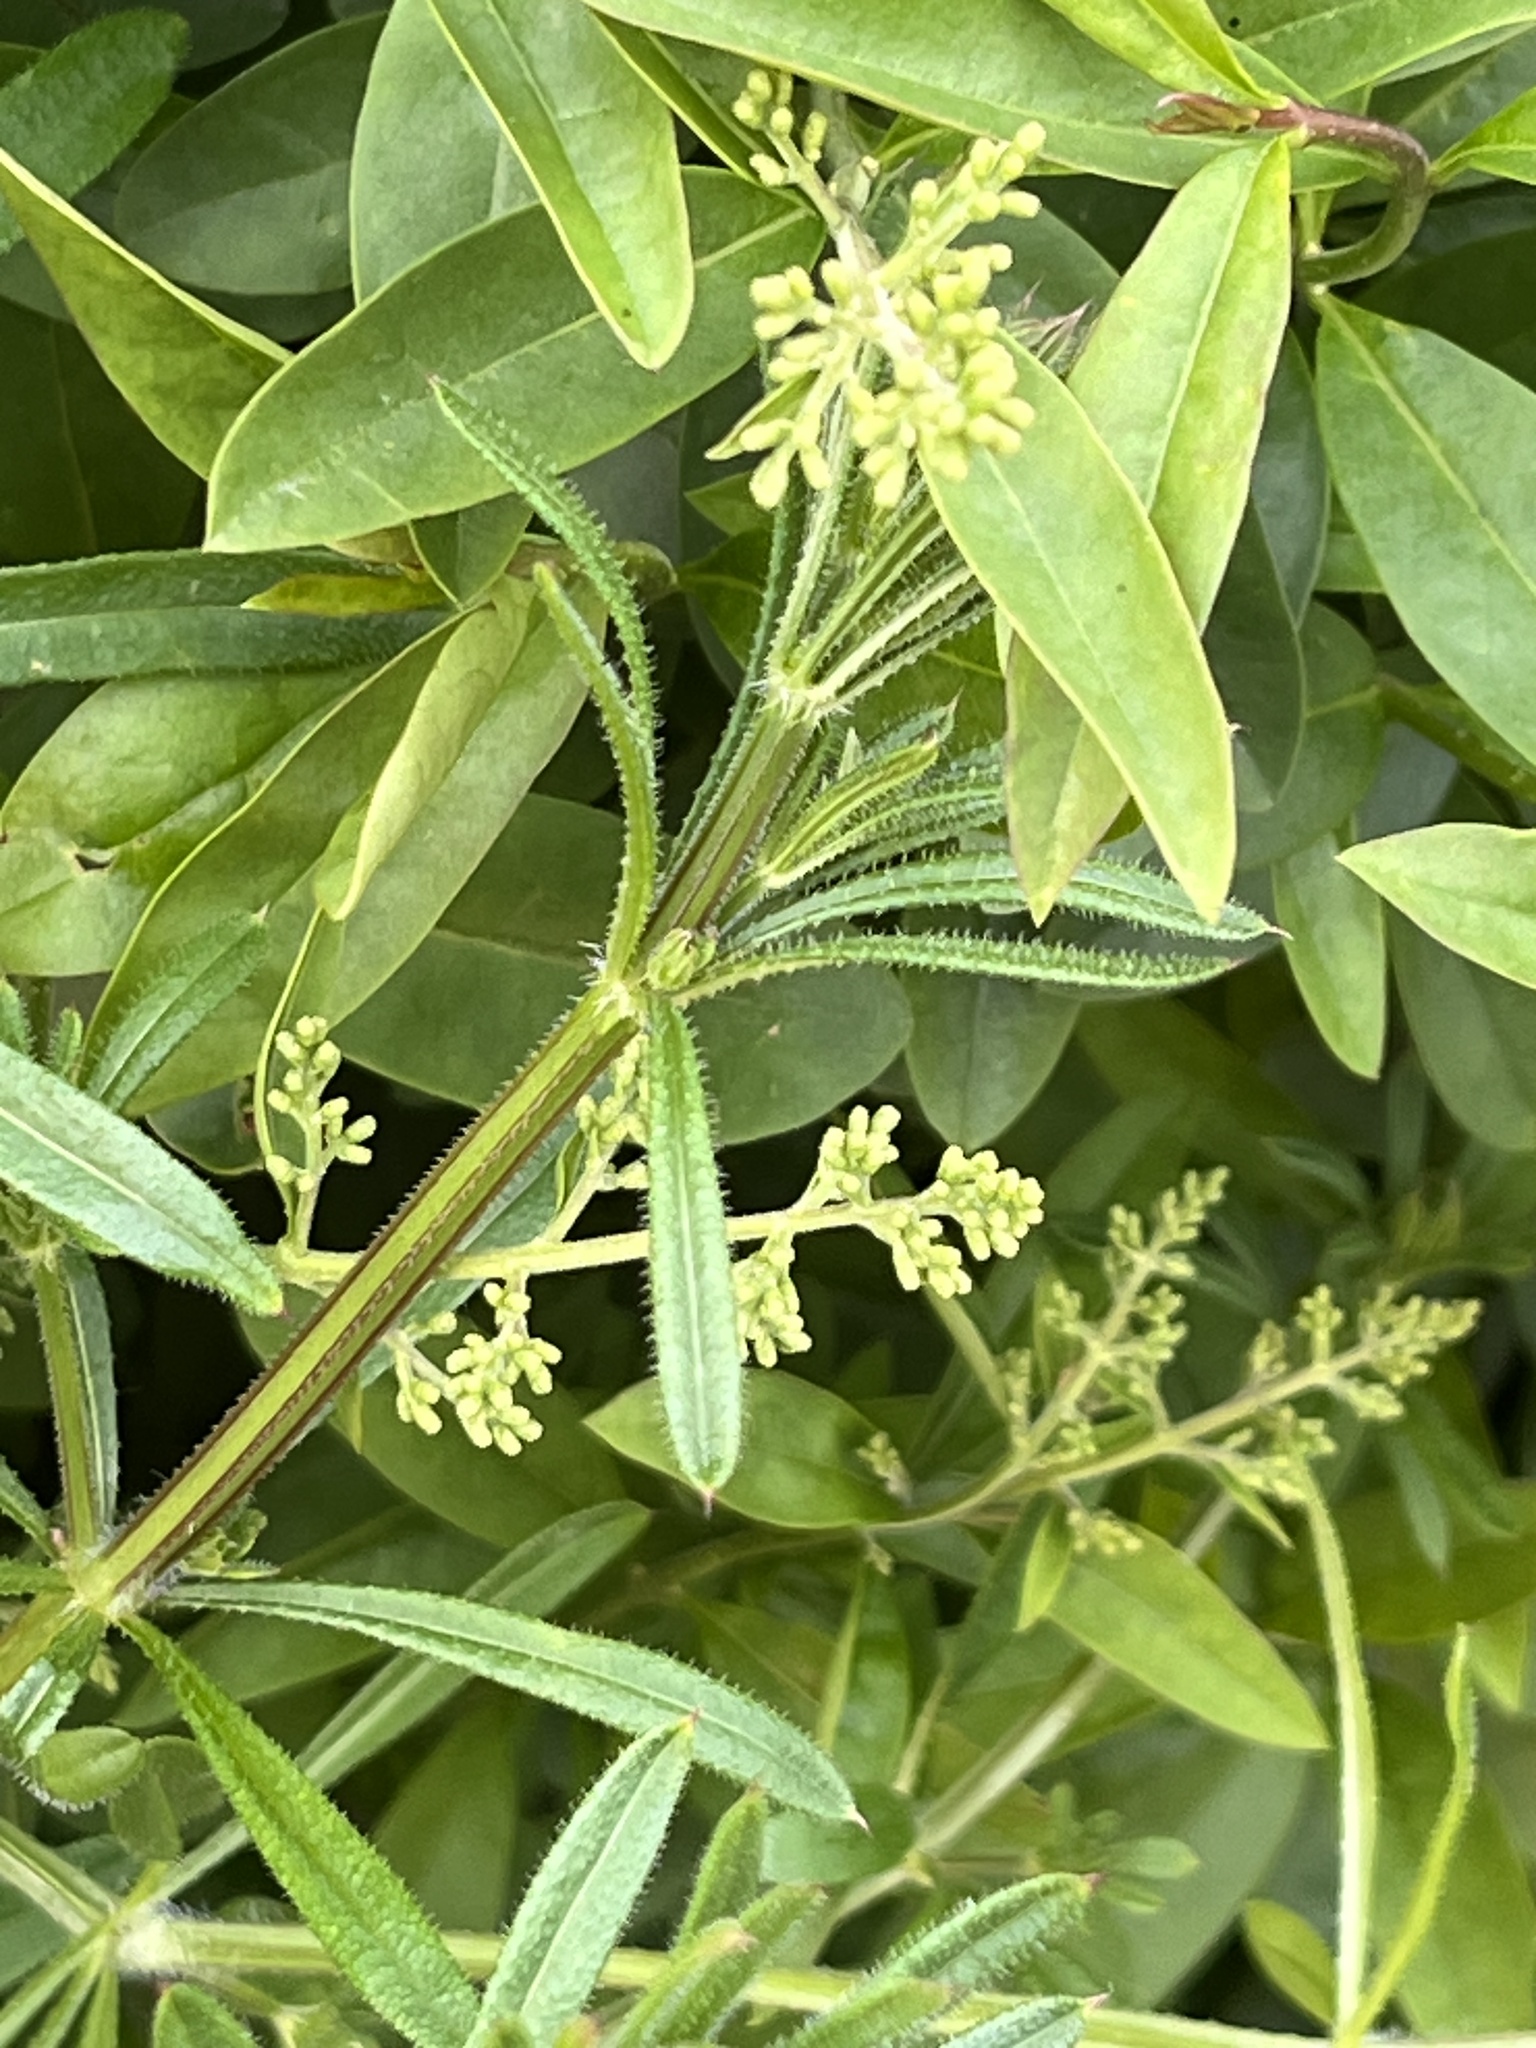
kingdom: Plantae
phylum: Tracheophyta
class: Magnoliopsida
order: Gentianales
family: Rubiaceae
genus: Galium
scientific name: Galium aparine
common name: Cleavers
